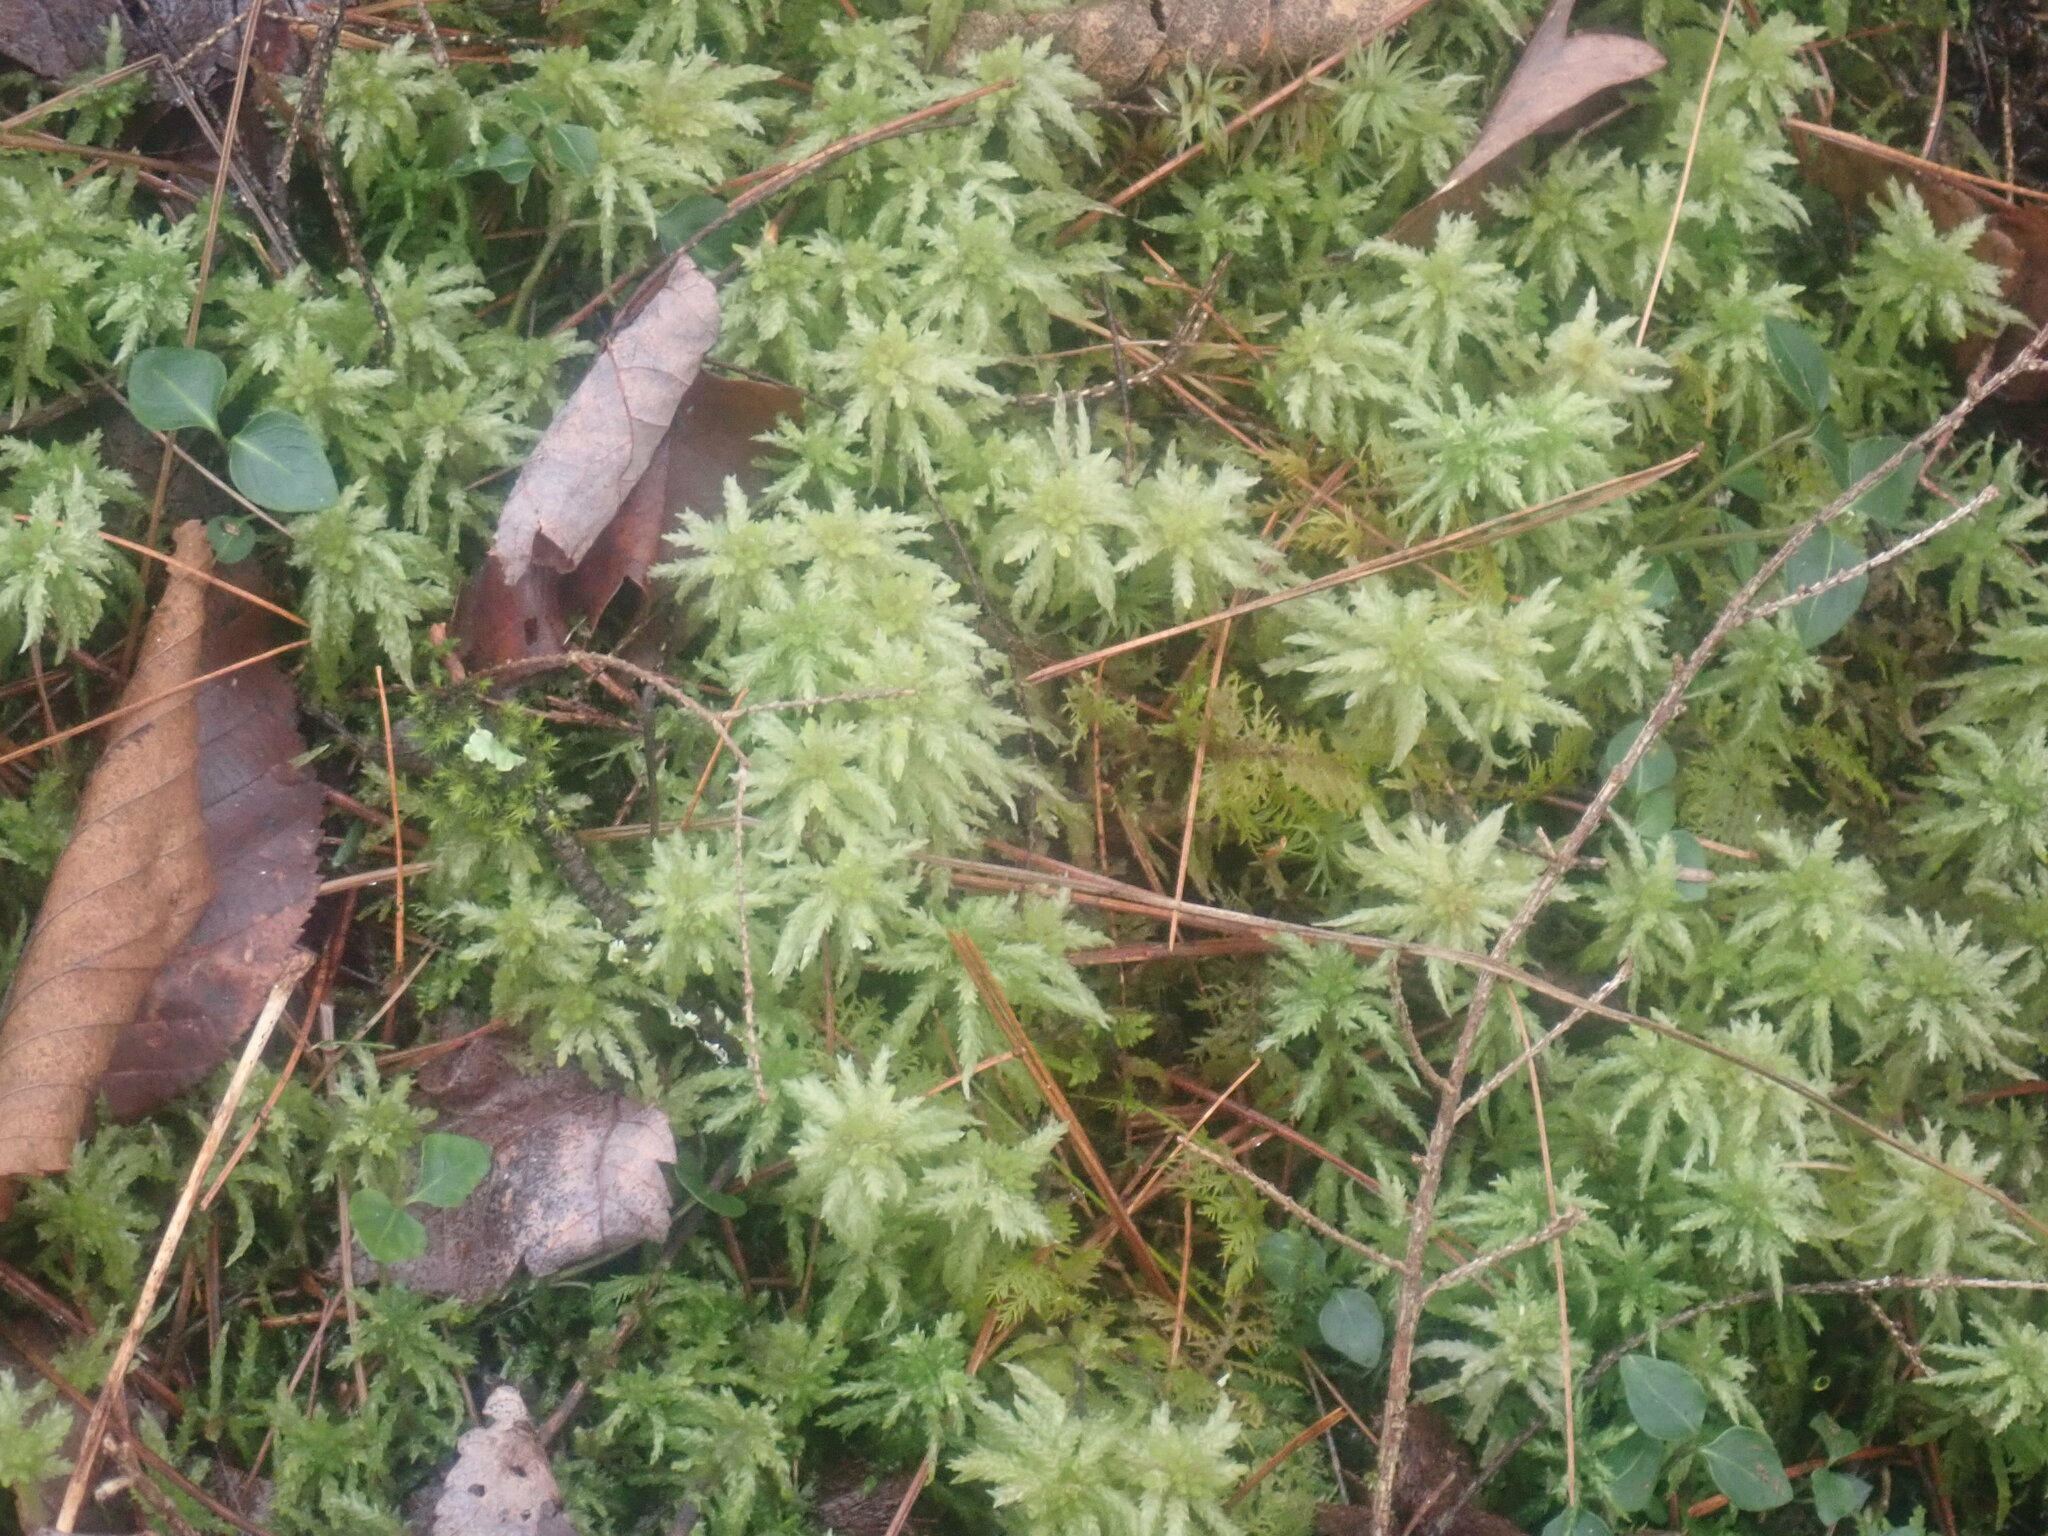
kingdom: Plantae
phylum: Bryophyta
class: Sphagnopsida
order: Sphagnales
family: Sphagnaceae
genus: Sphagnum
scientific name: Sphagnum
